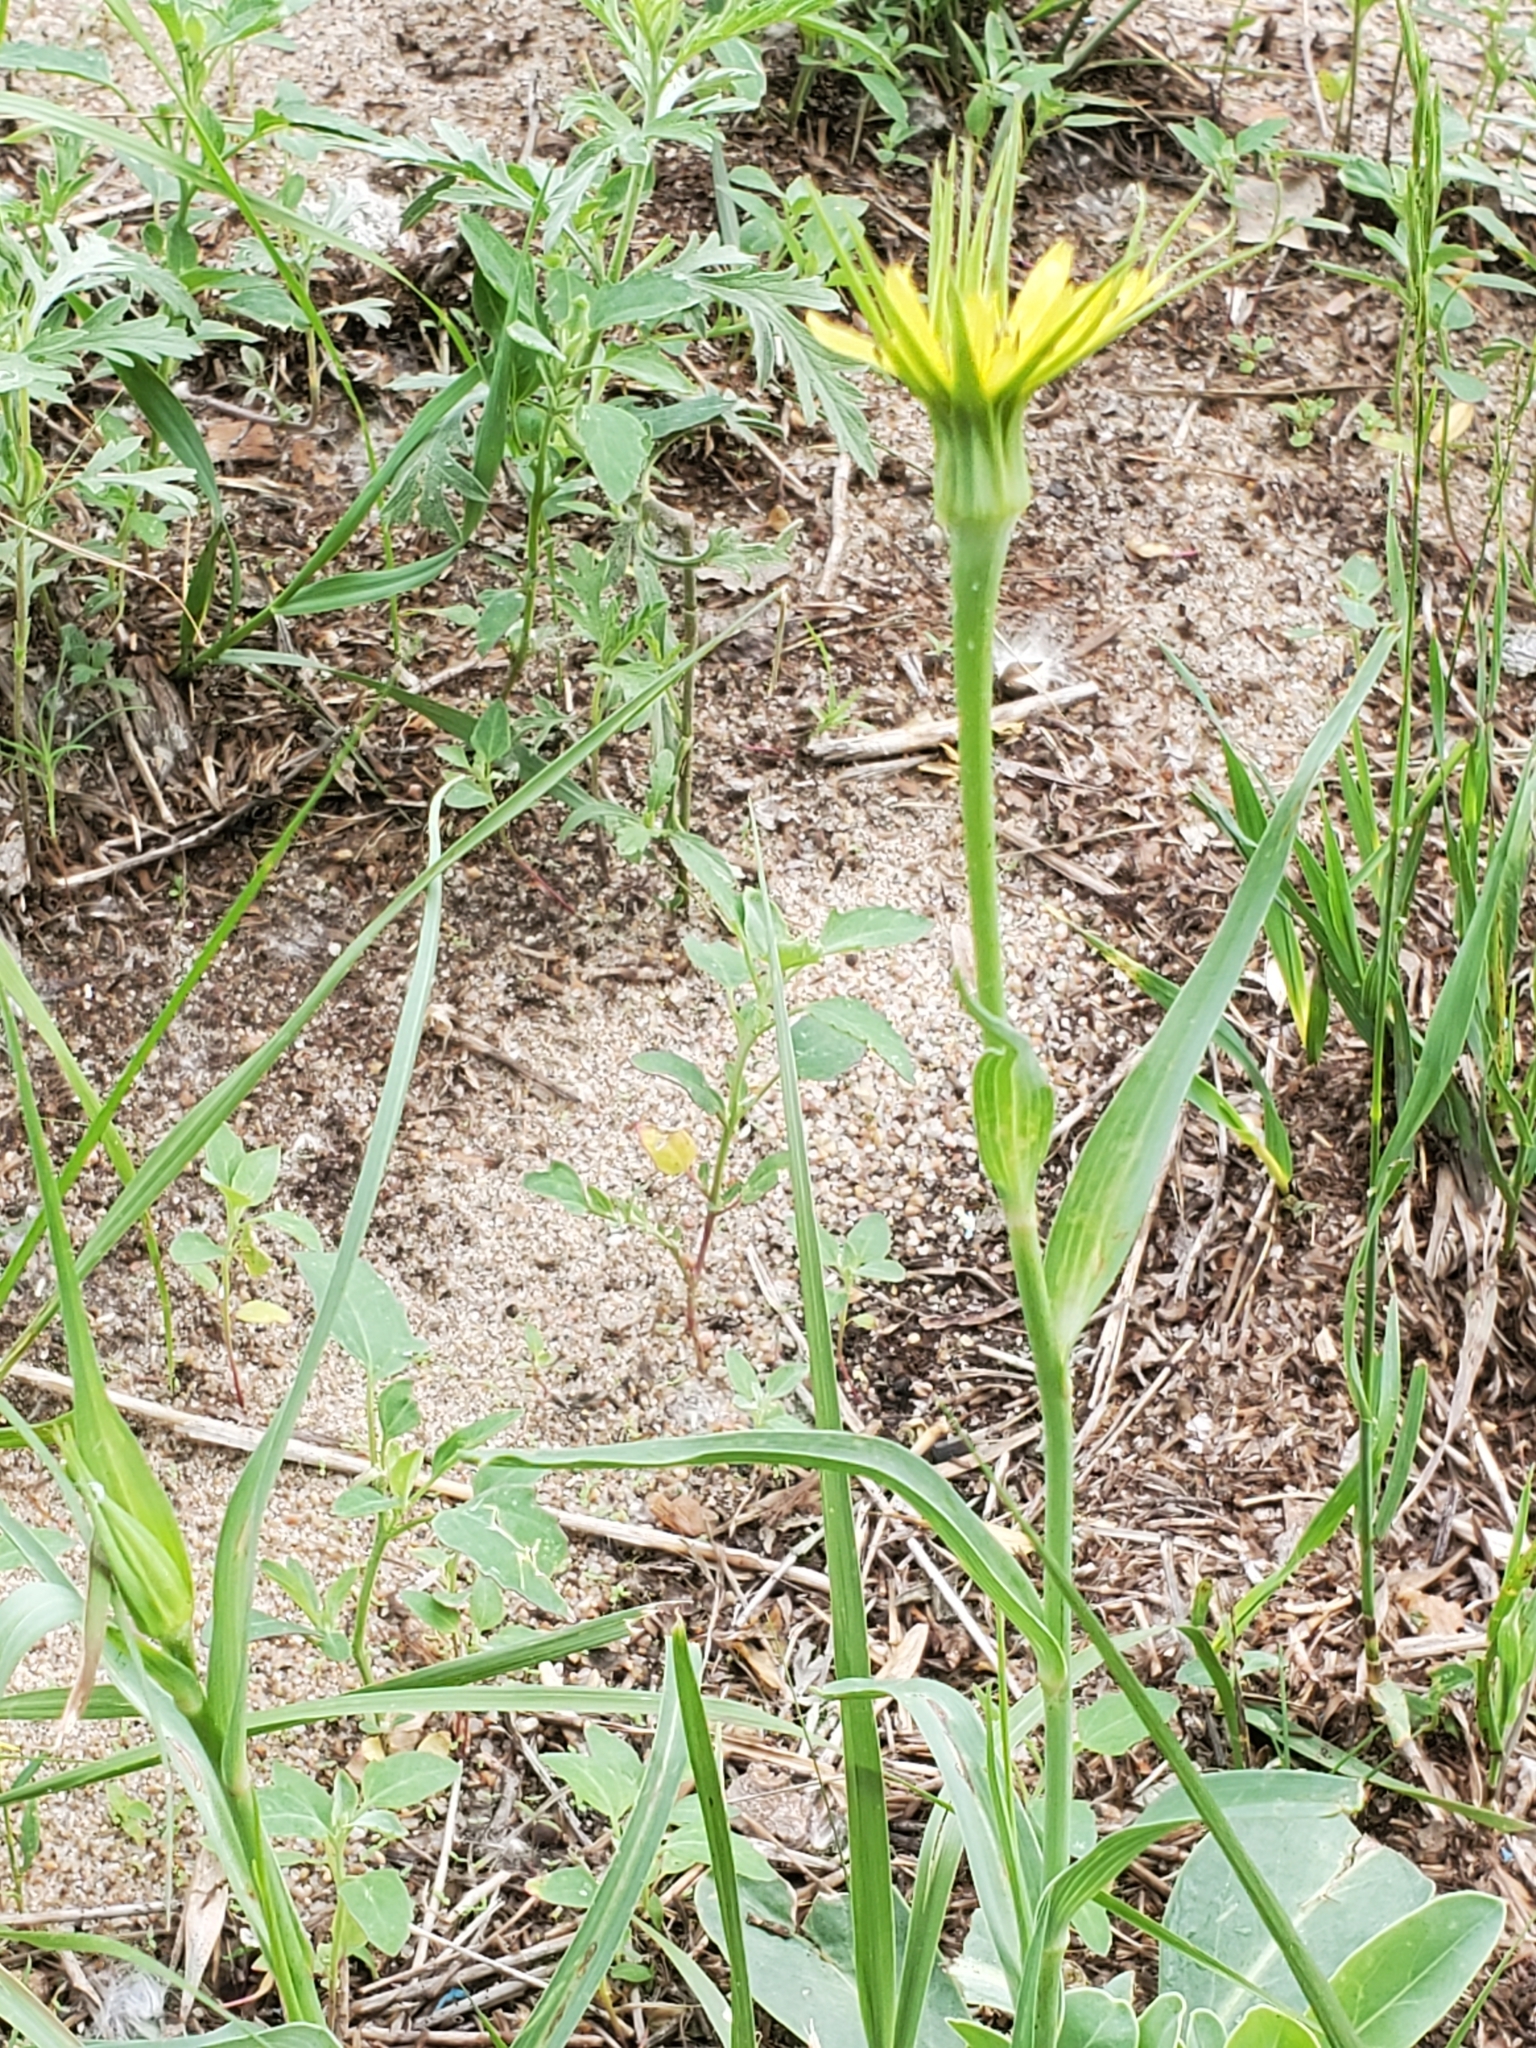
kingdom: Plantae
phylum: Tracheophyta
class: Magnoliopsida
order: Asterales
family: Asteraceae
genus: Tragopogon
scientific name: Tragopogon dubius
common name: Yellow salsify
